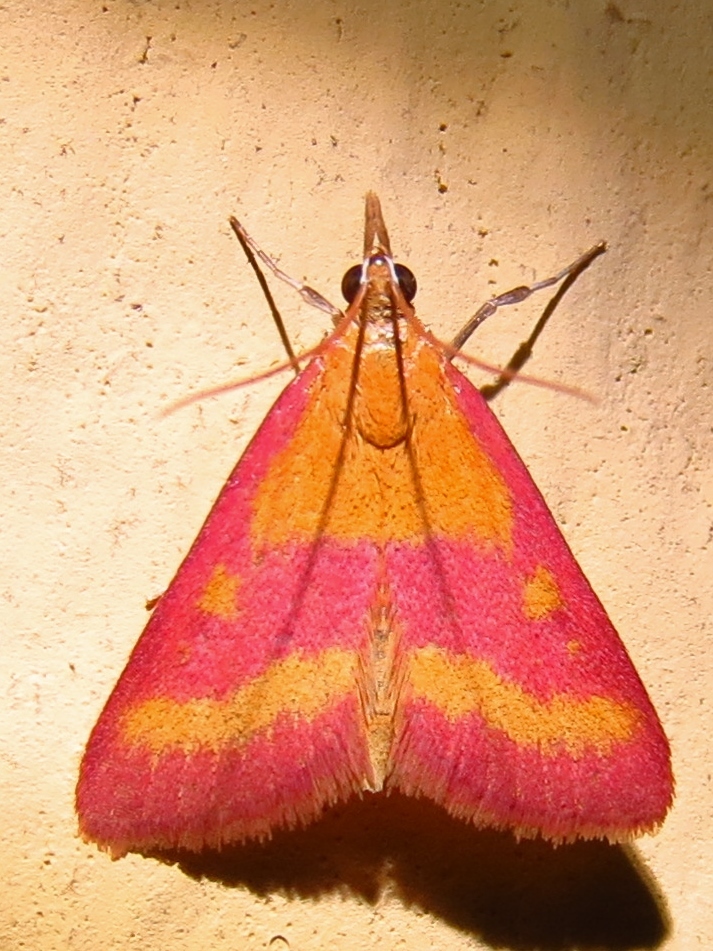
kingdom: Animalia
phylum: Arthropoda
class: Insecta
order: Lepidoptera
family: Crambidae
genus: Pyrausta
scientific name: Pyrausta laticlavia
